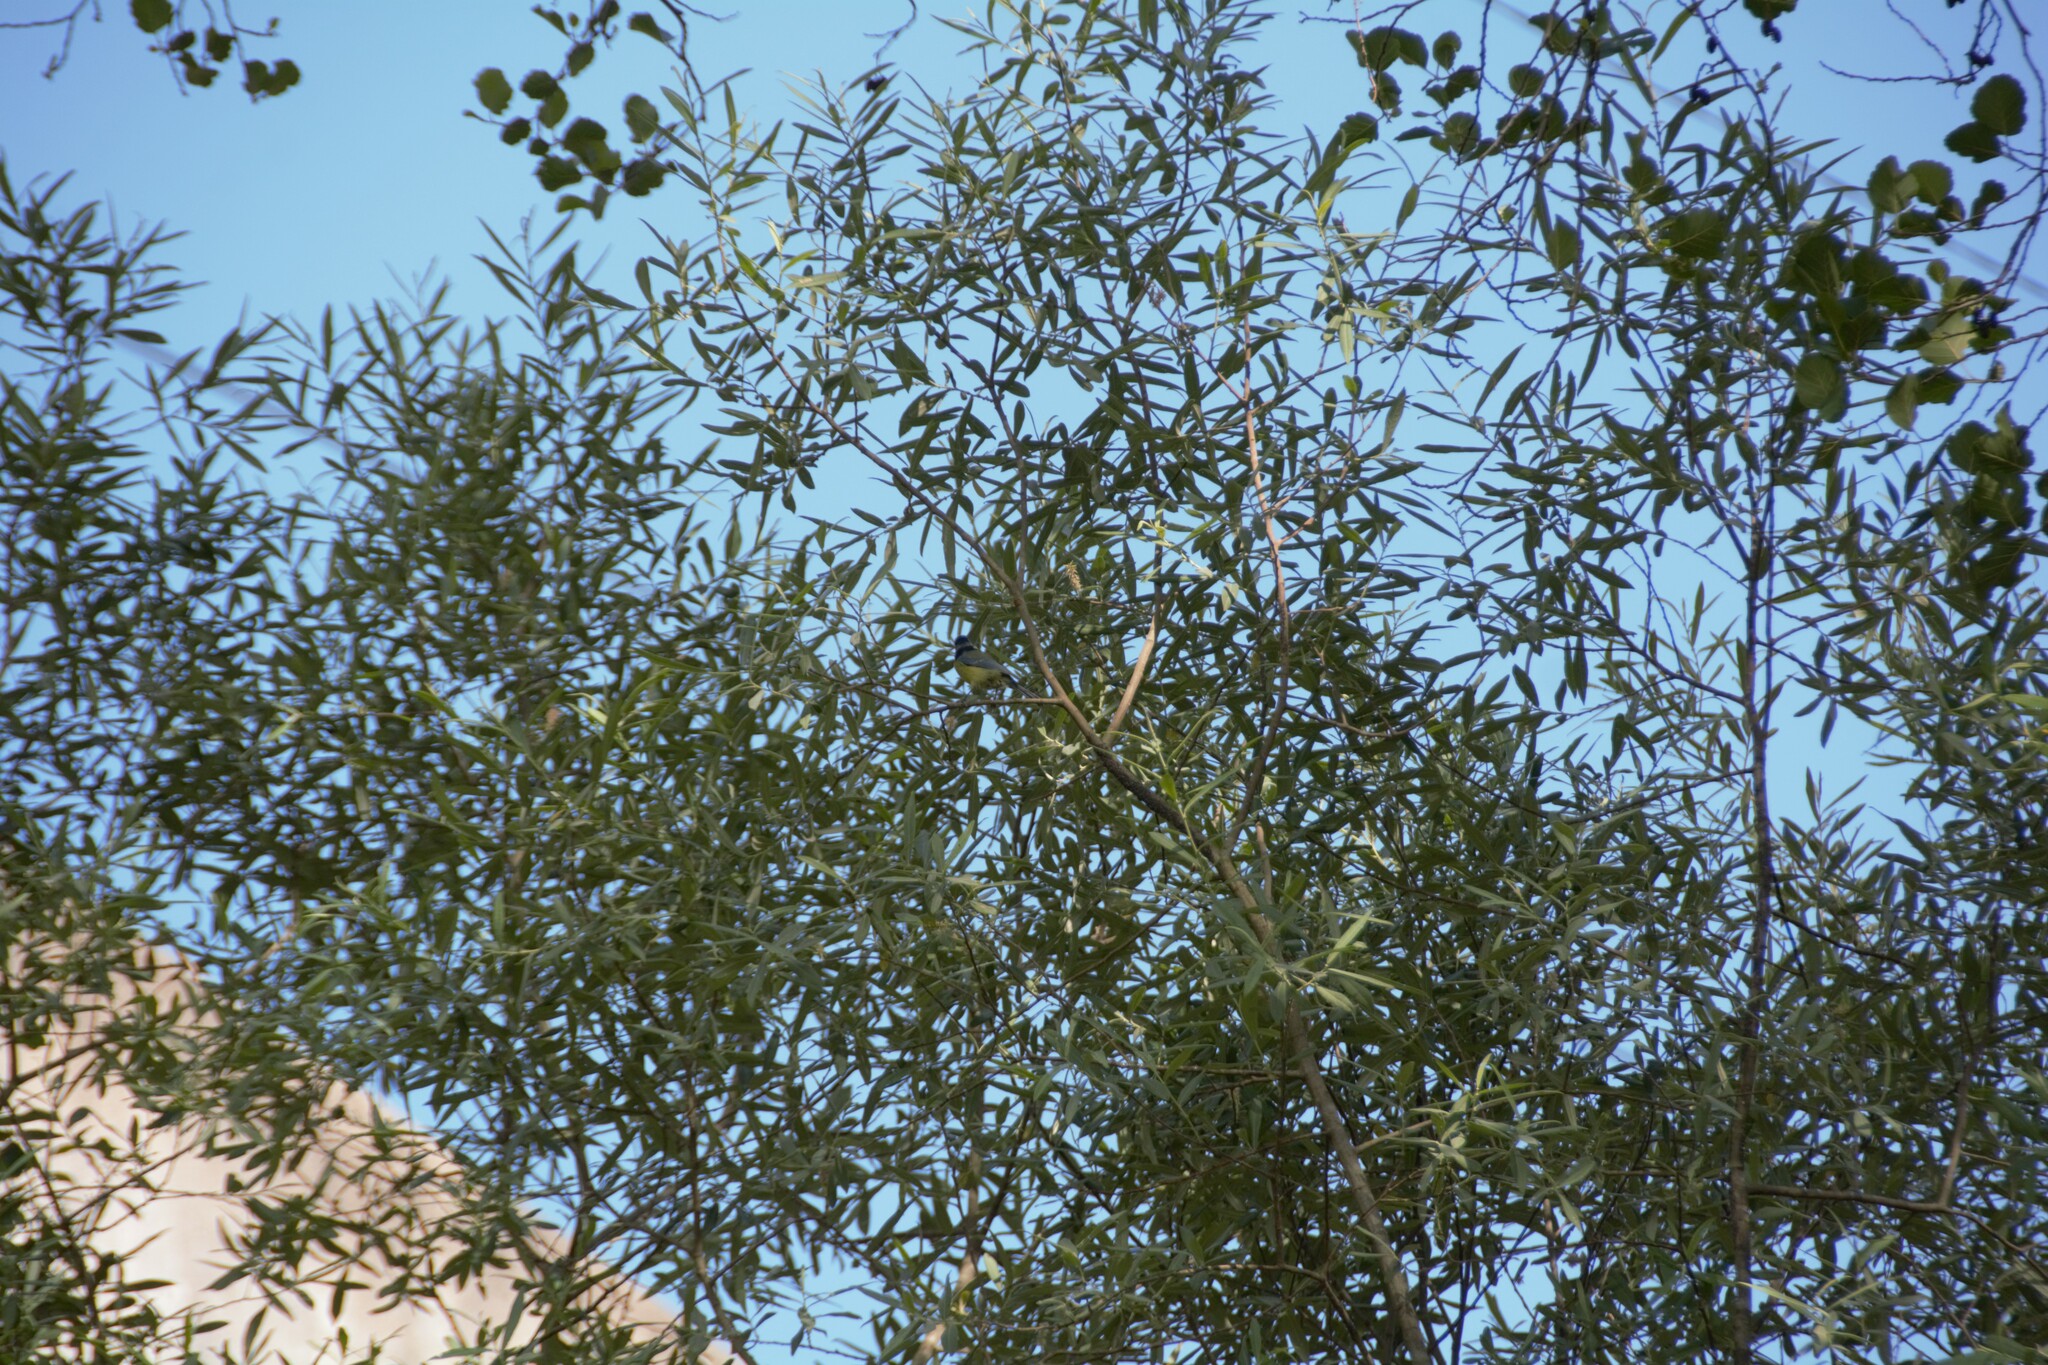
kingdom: Animalia
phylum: Chordata
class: Aves
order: Passeriformes
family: Paridae
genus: Cyanistes
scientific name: Cyanistes caeruleus
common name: Eurasian blue tit
